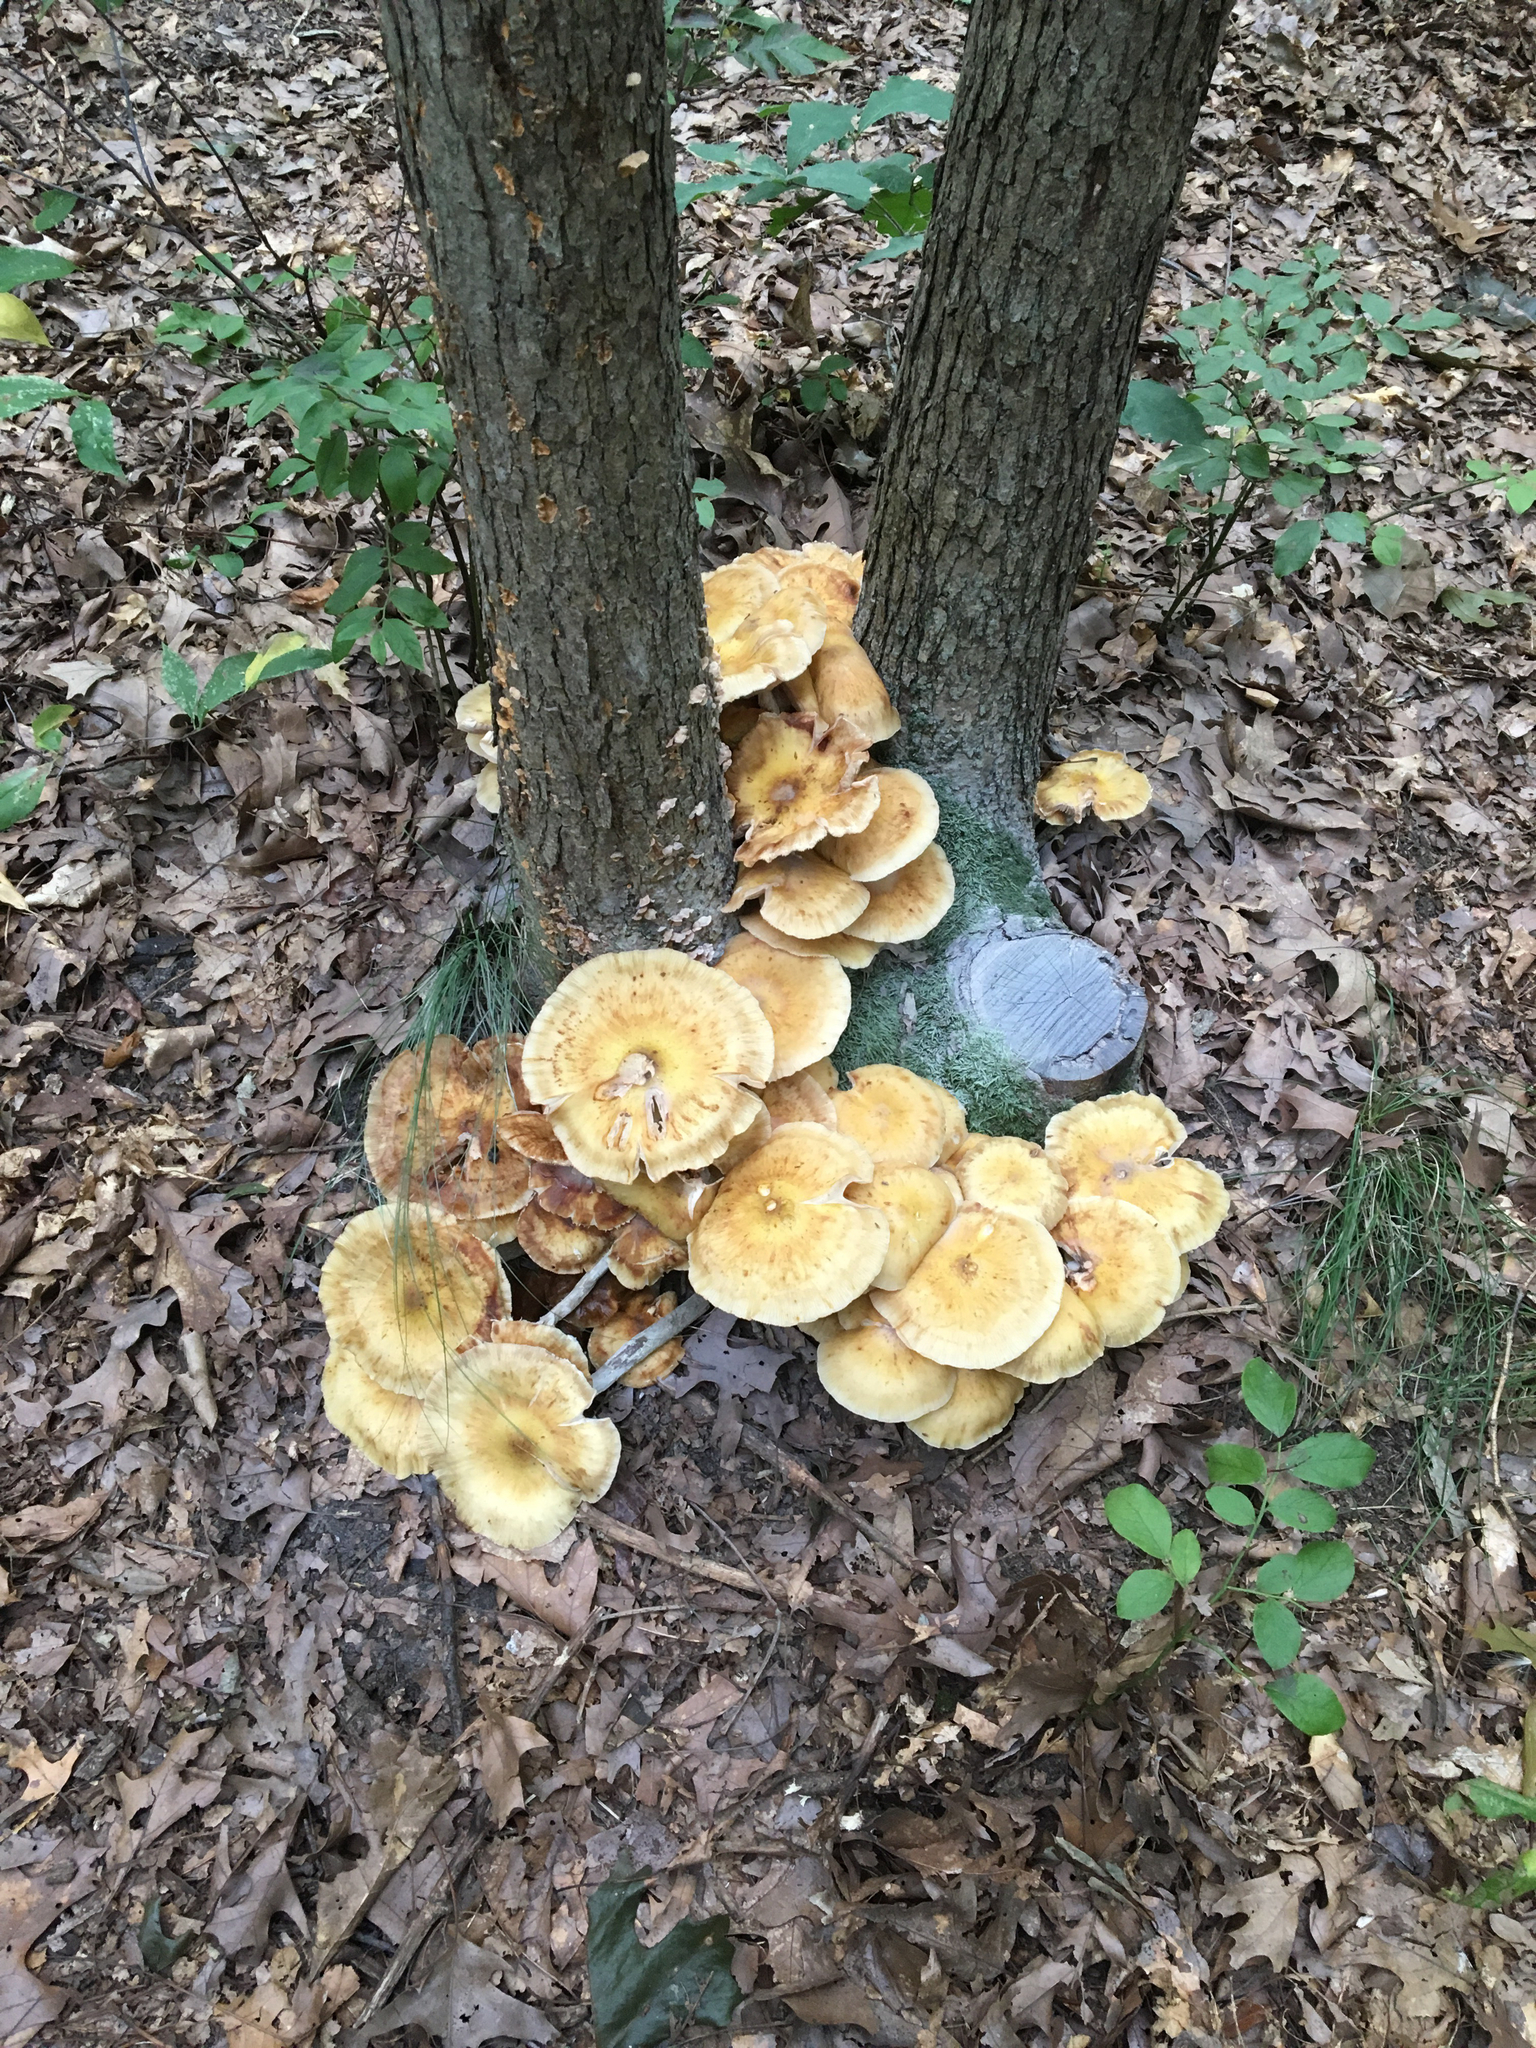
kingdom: Fungi
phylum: Basidiomycota
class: Agaricomycetes
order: Agaricales
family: Physalacriaceae
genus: Armillaria
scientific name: Armillaria mellea
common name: Honey fungus
